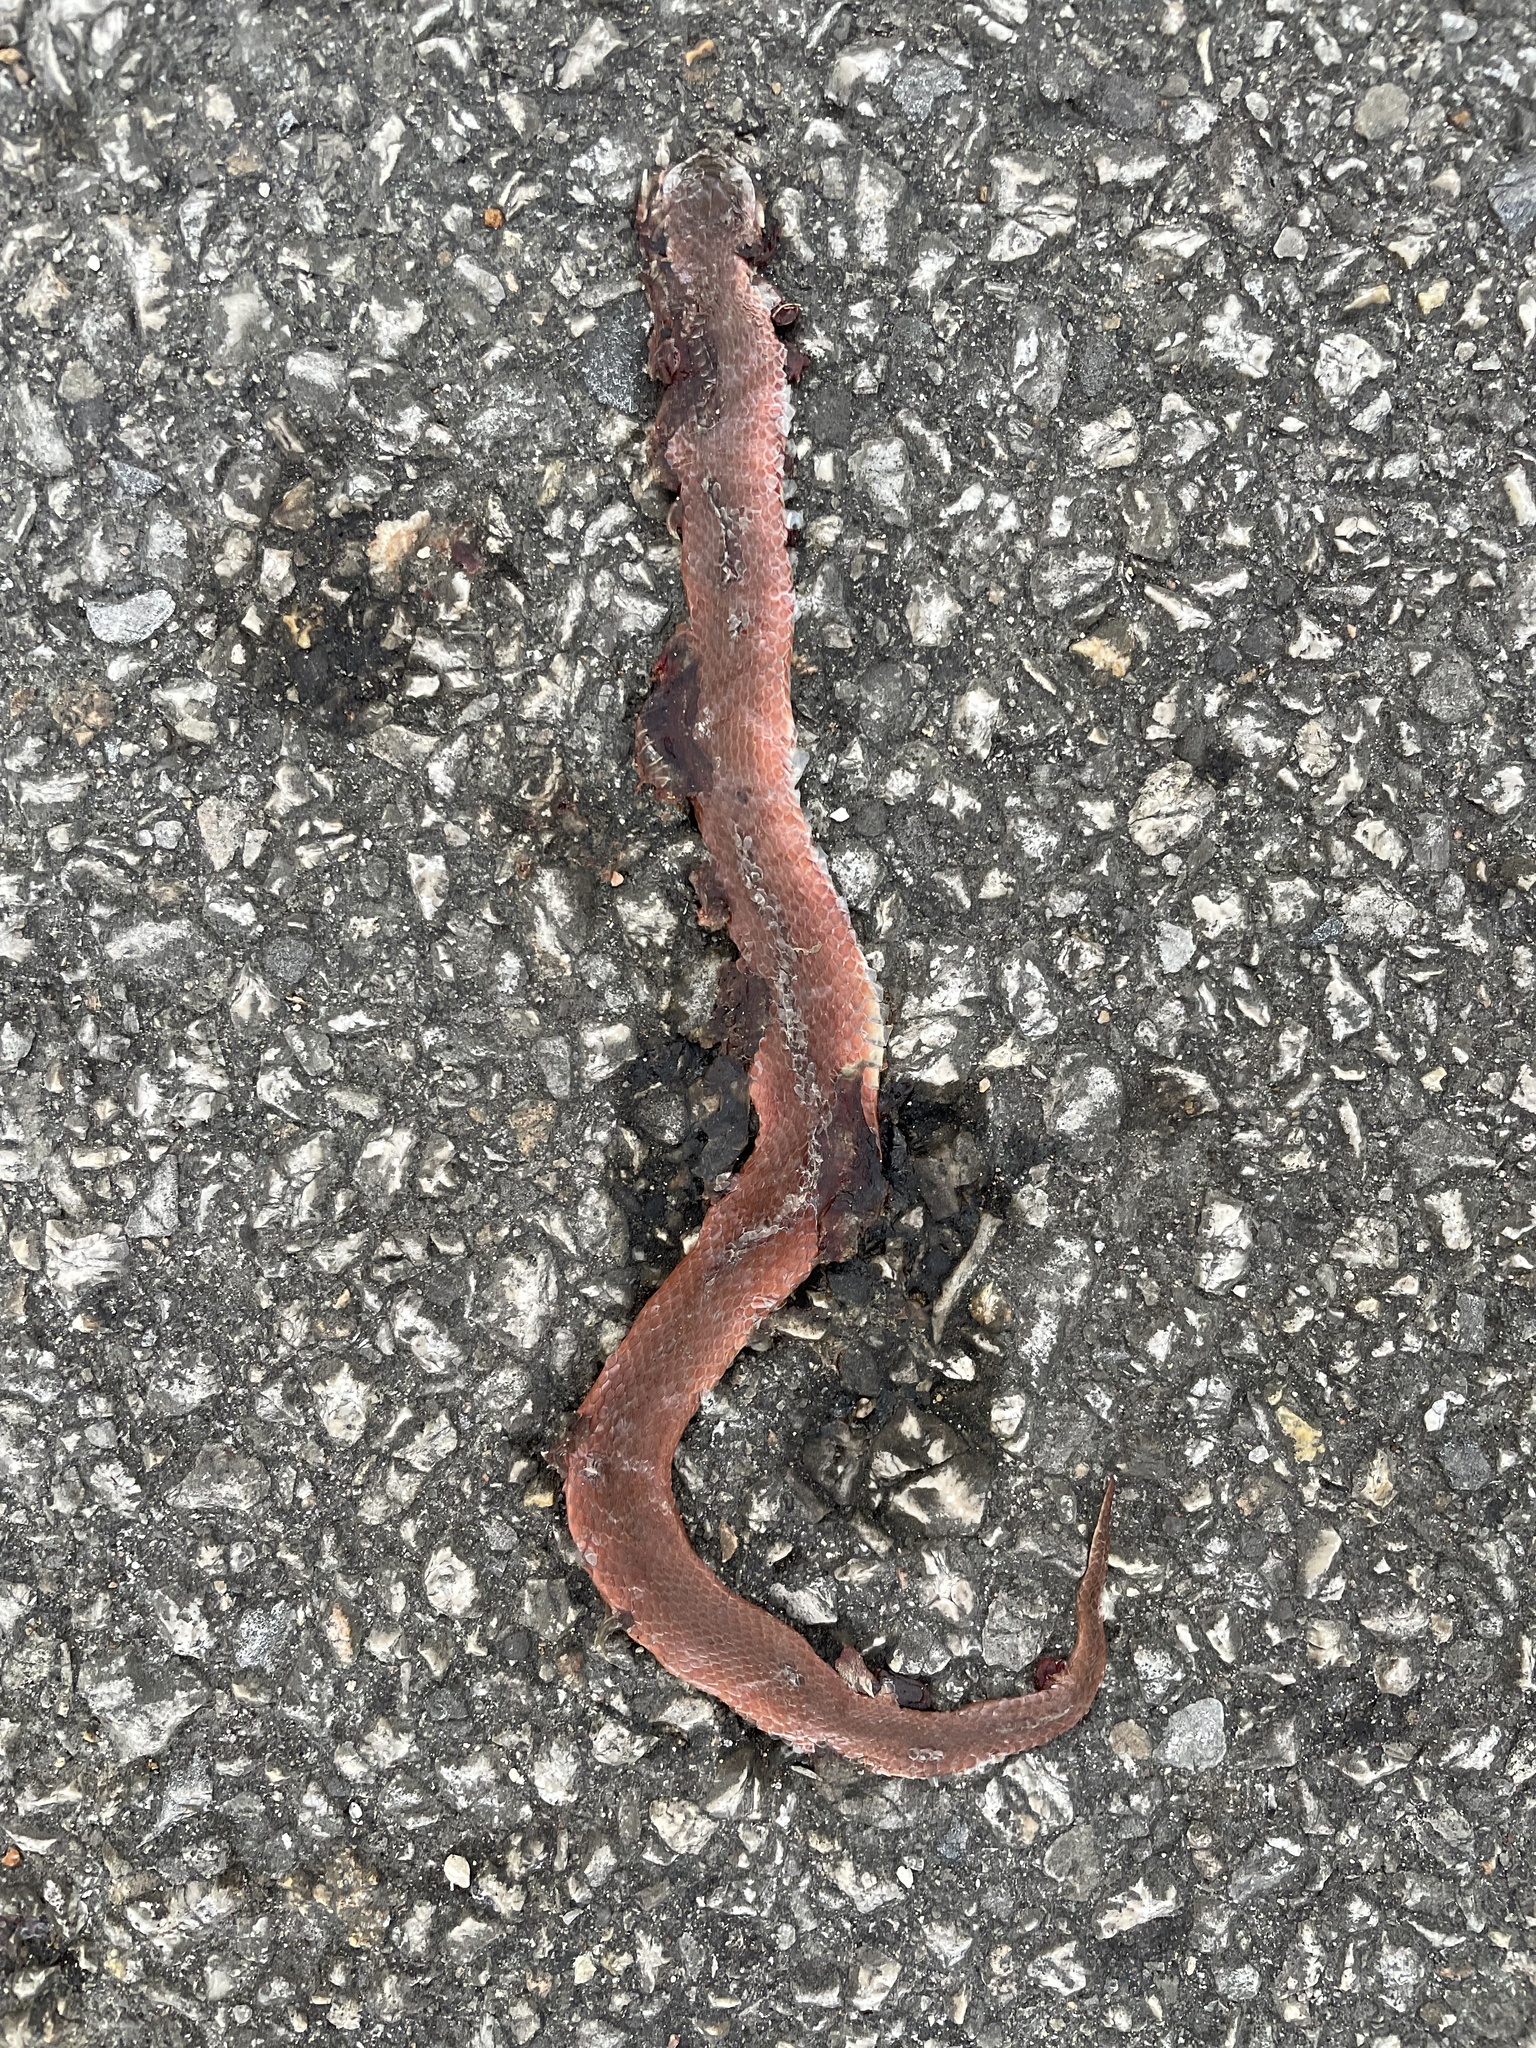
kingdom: Animalia
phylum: Chordata
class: Squamata
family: Colubridae
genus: Virginia
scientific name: Virginia valeriae
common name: Smooth earth snake
